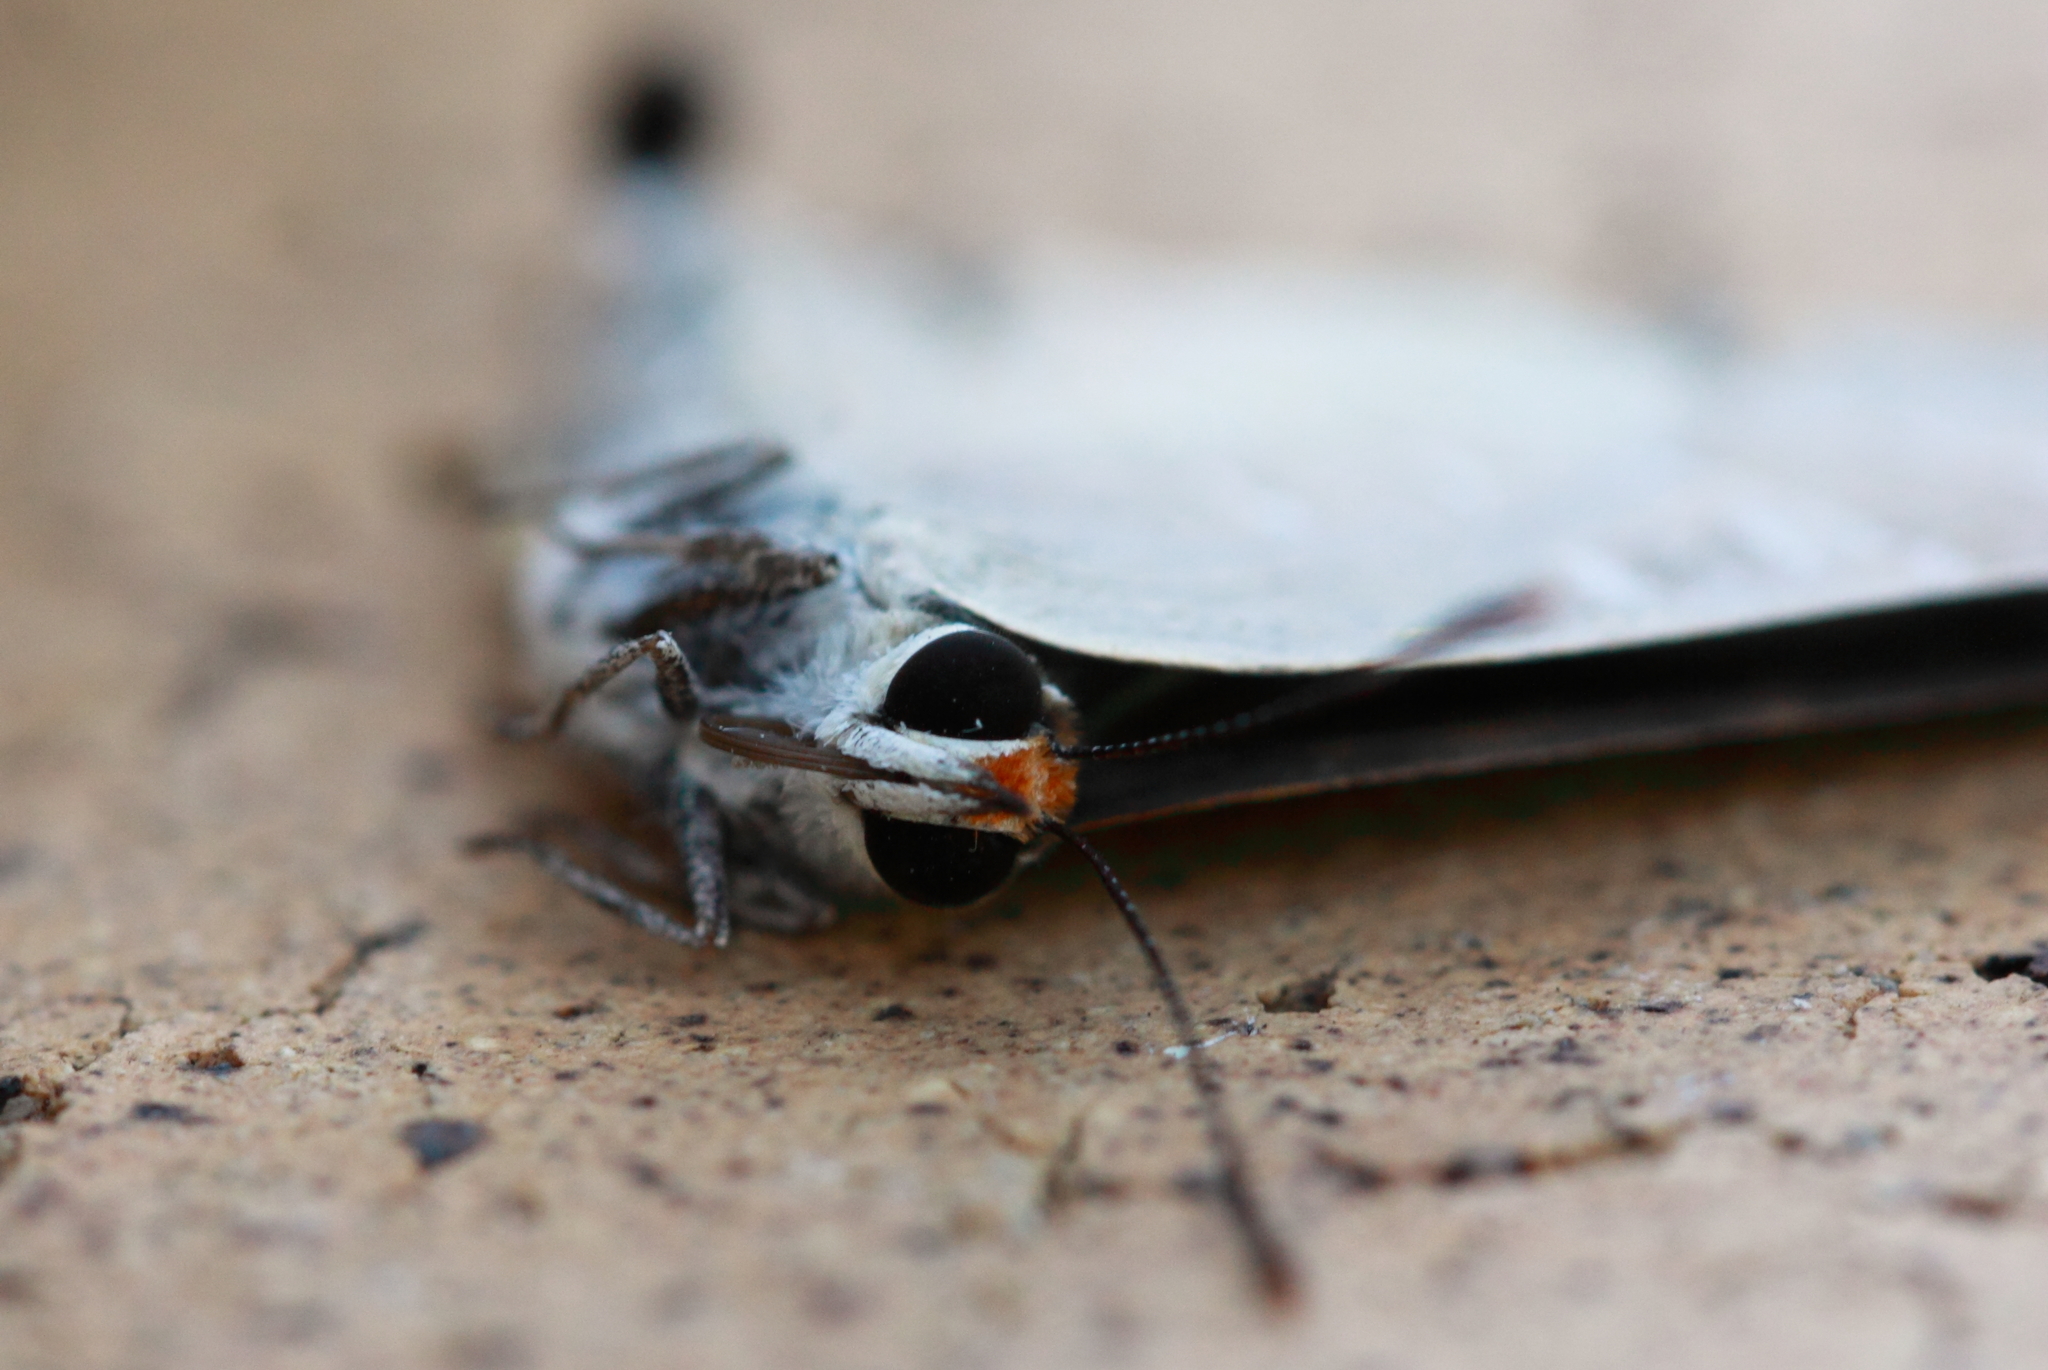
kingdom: Animalia
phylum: Arthropoda
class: Insecta
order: Lepidoptera
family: Lycaenidae
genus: Deudorix
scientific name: Deudorix diovis
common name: Bright cornelian
